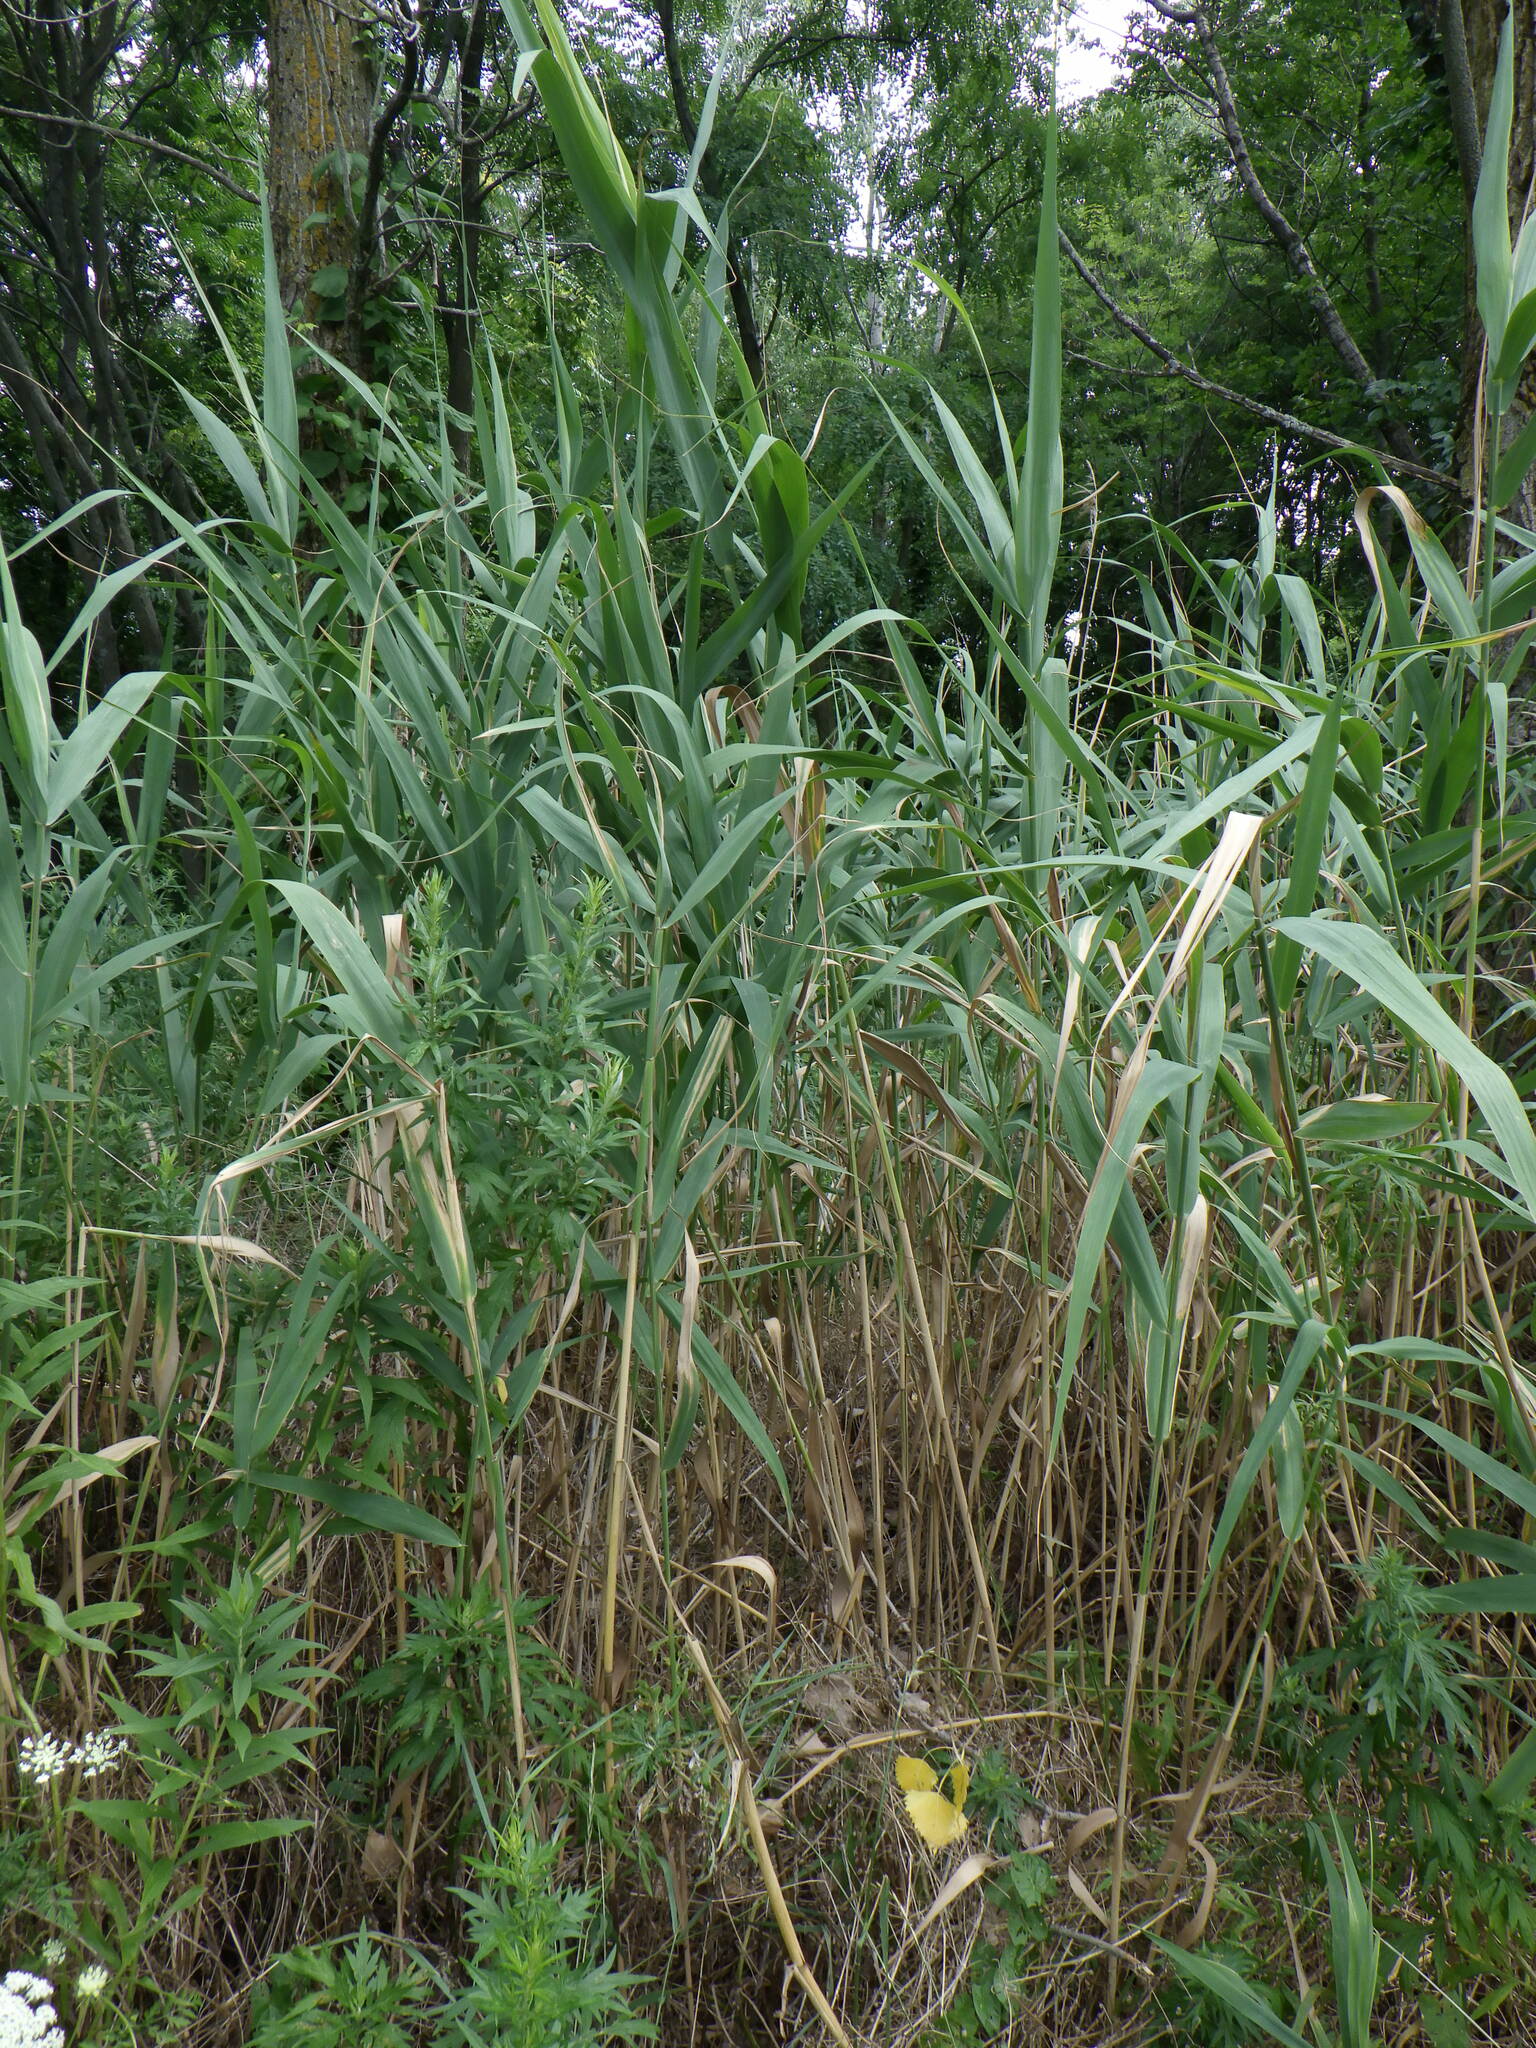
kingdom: Plantae
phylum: Tracheophyta
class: Liliopsida
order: Poales
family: Poaceae
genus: Phragmites
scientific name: Phragmites australis
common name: Common reed
